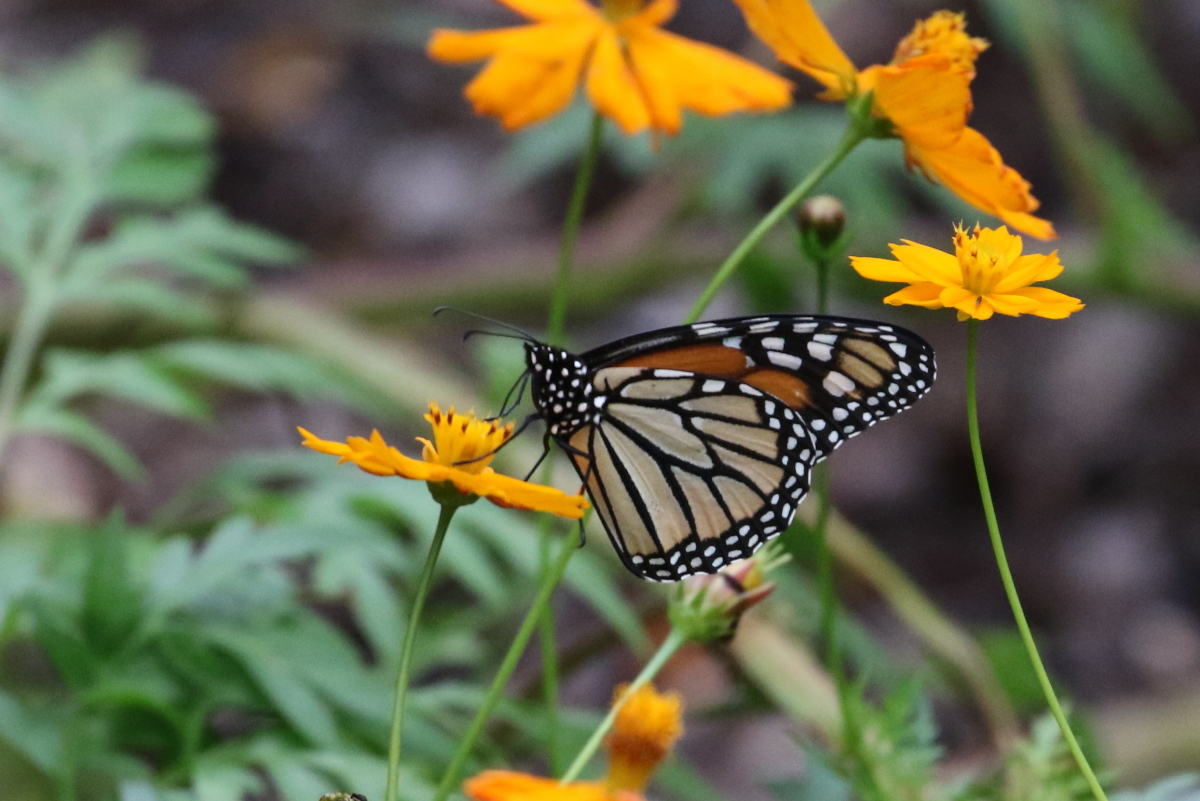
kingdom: Animalia
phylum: Arthropoda
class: Insecta
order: Lepidoptera
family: Nymphalidae
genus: Danaus
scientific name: Danaus plexippus
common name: Monarch
